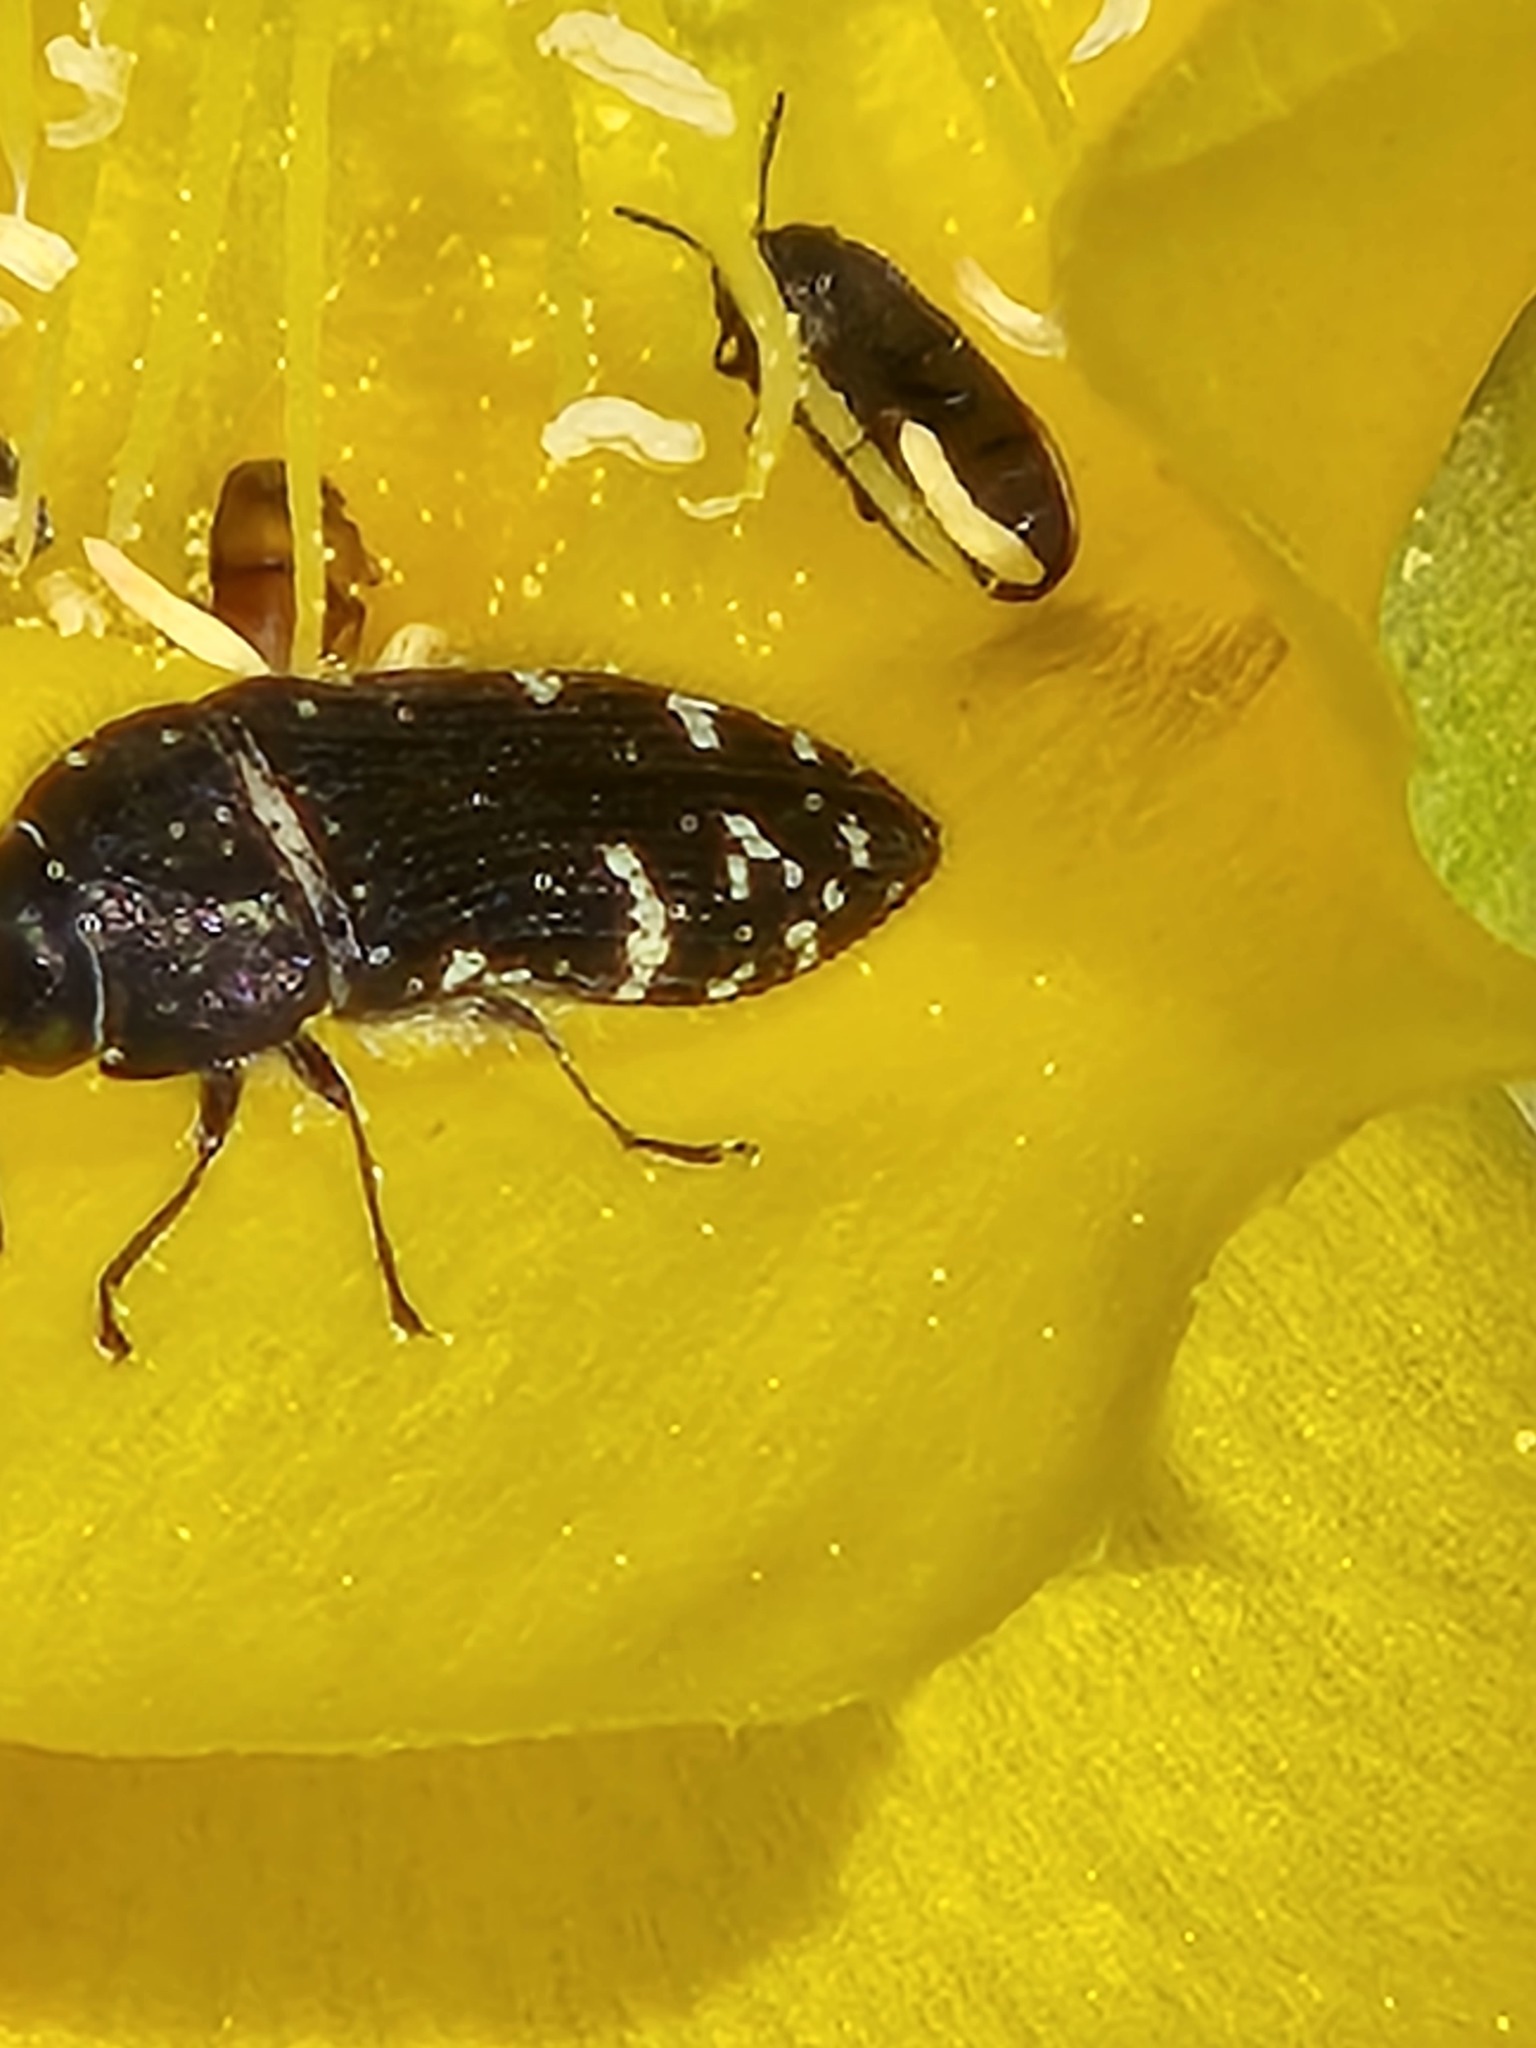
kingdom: Animalia
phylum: Arthropoda
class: Insecta
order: Coleoptera
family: Buprestidae
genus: Acmaeodera
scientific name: Acmaeodera ornatoides
